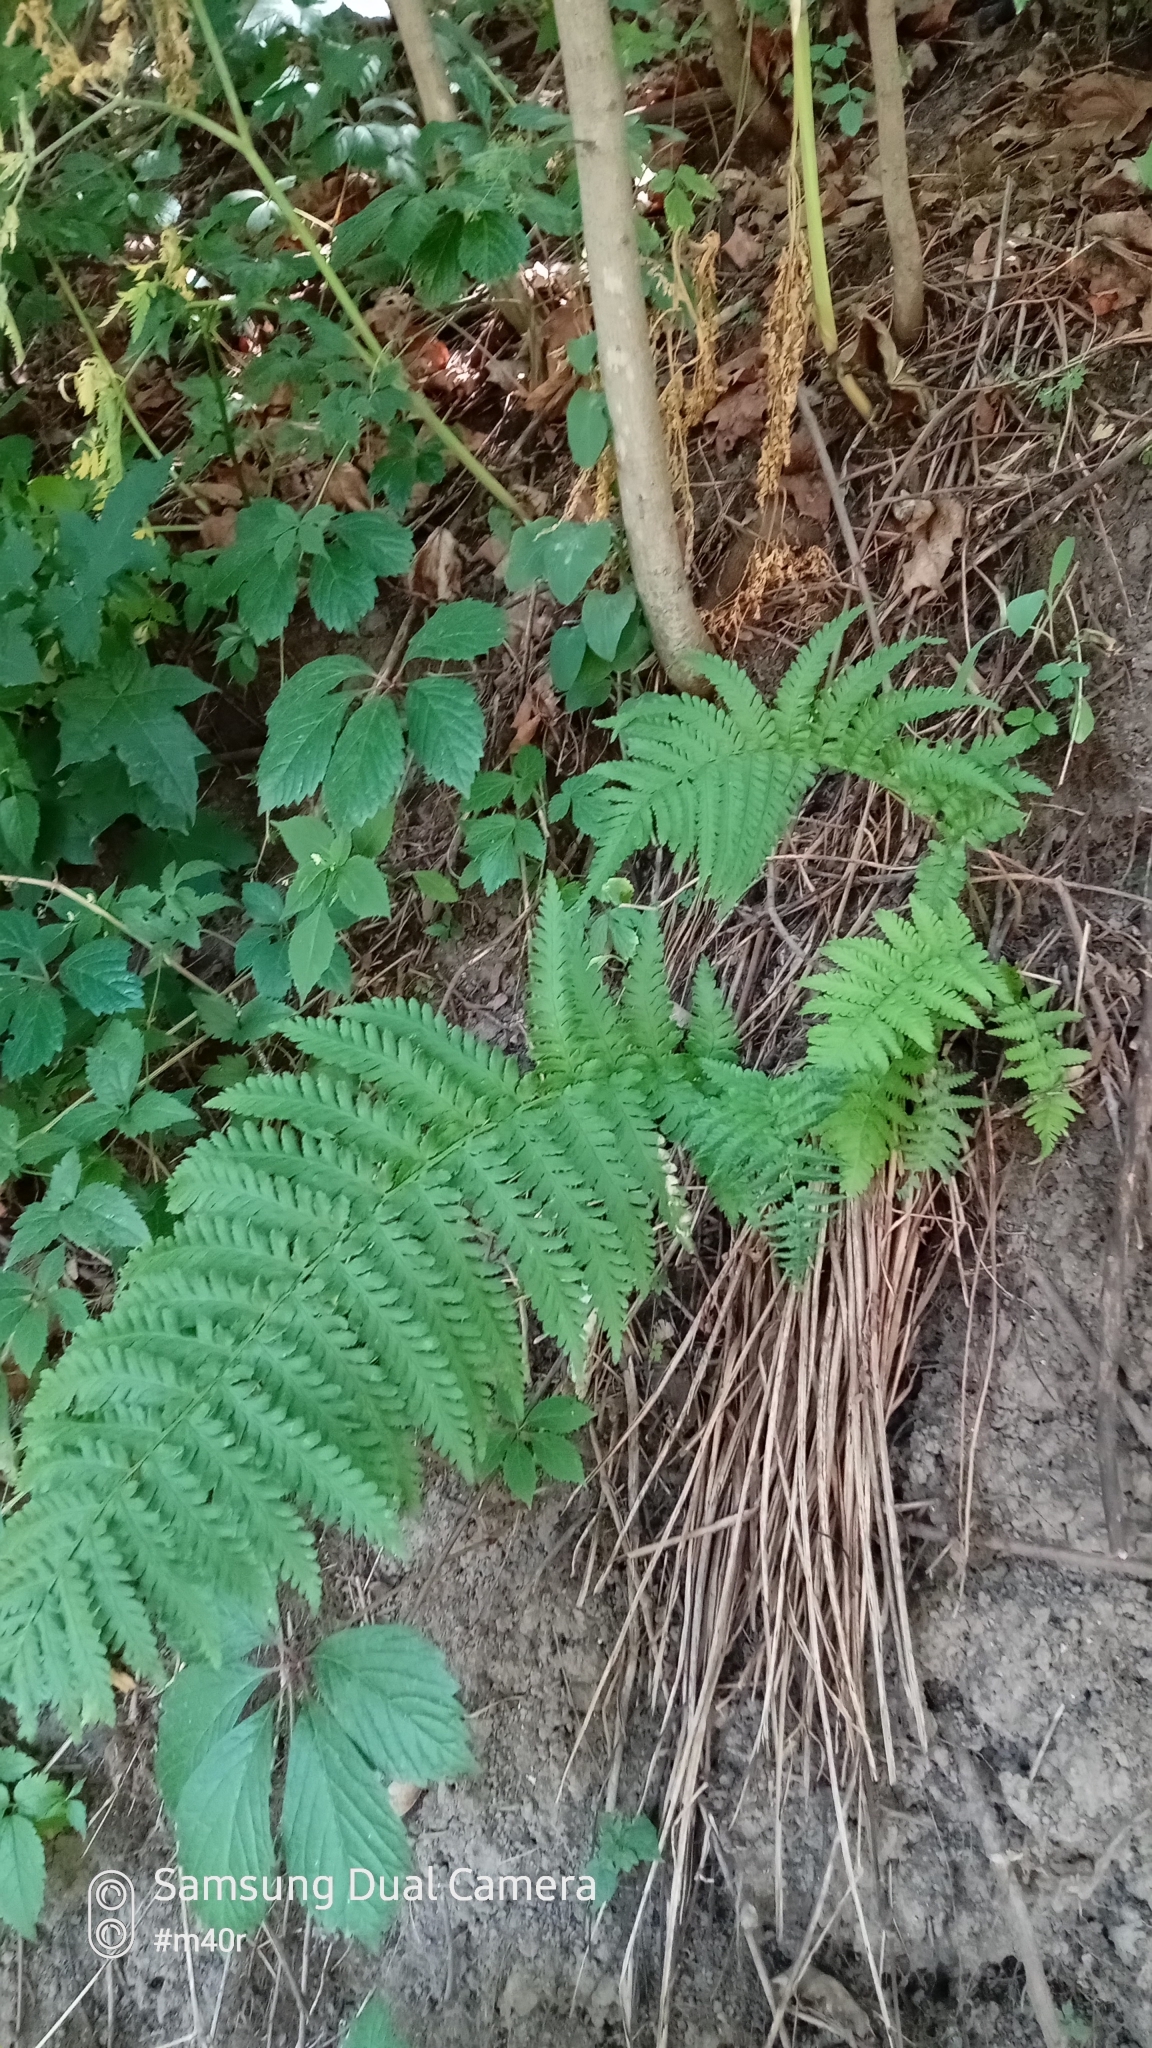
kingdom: Plantae
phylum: Tracheophyta
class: Polypodiopsida
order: Polypodiales
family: Dryopteridaceae
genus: Dryopteris
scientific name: Dryopteris filix-mas
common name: Male fern
